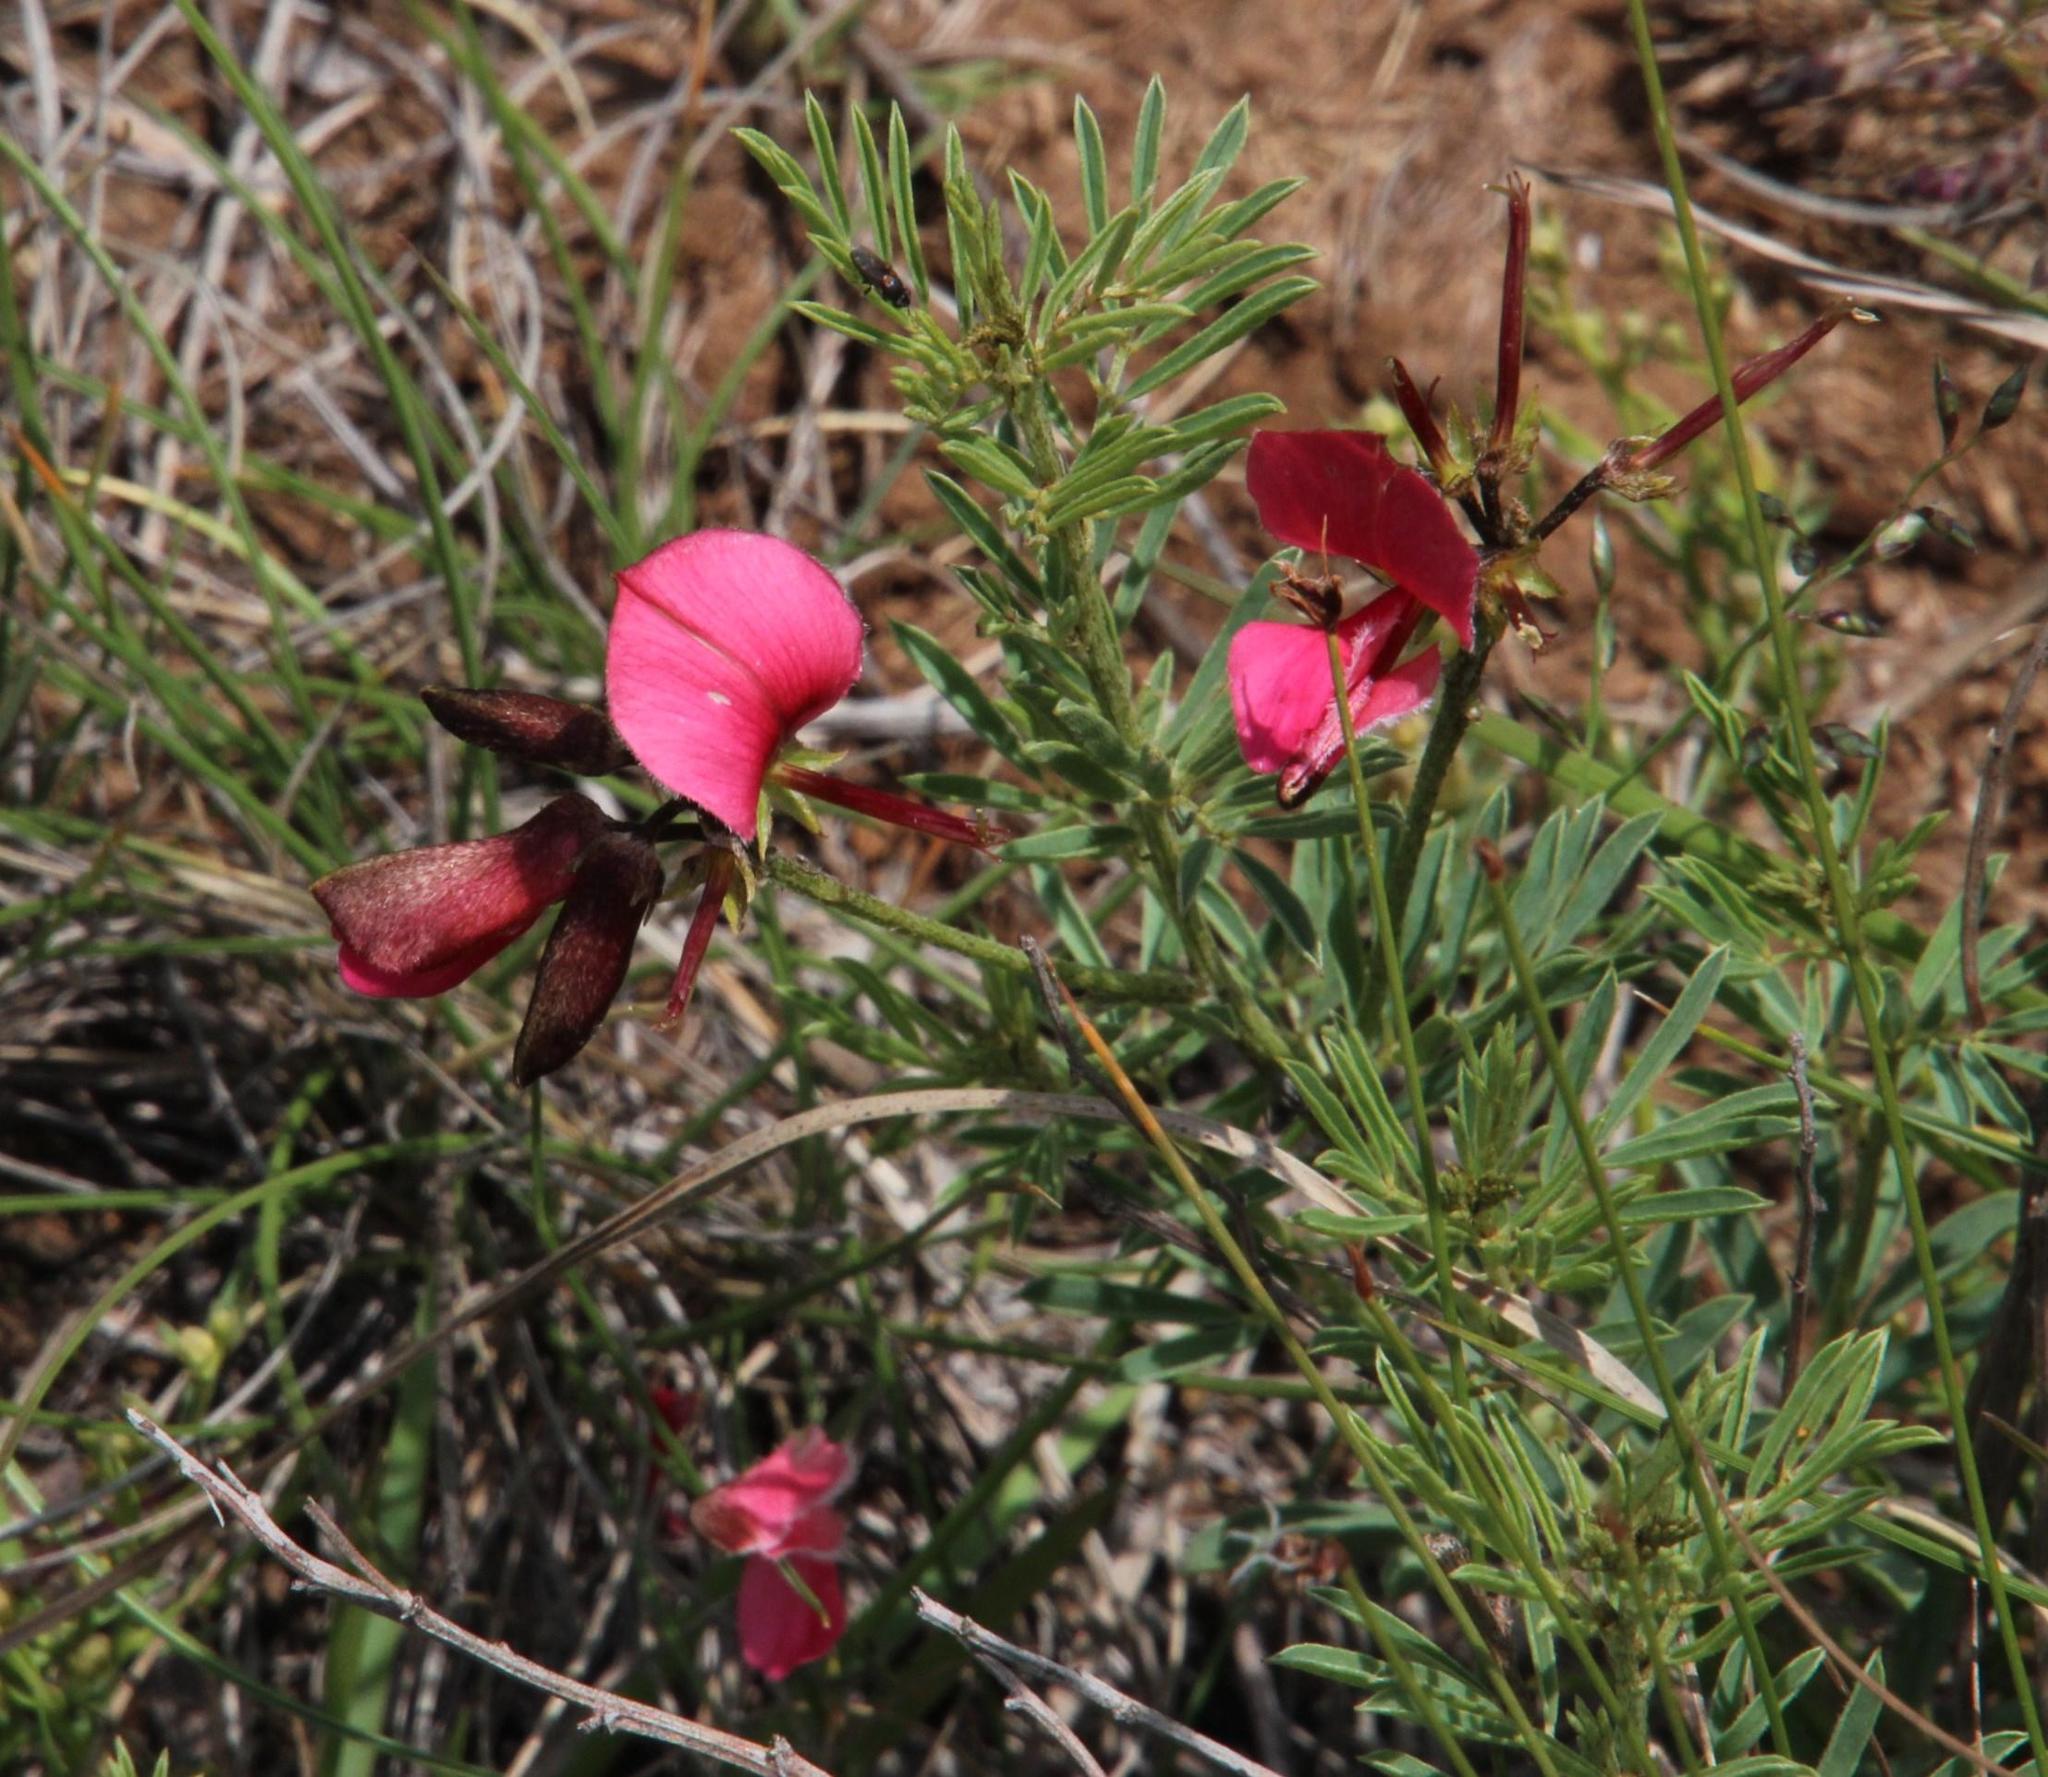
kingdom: Plantae
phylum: Tracheophyta
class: Magnoliopsida
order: Fabales
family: Fabaceae
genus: Indigofera
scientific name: Indigofera hedyantha
